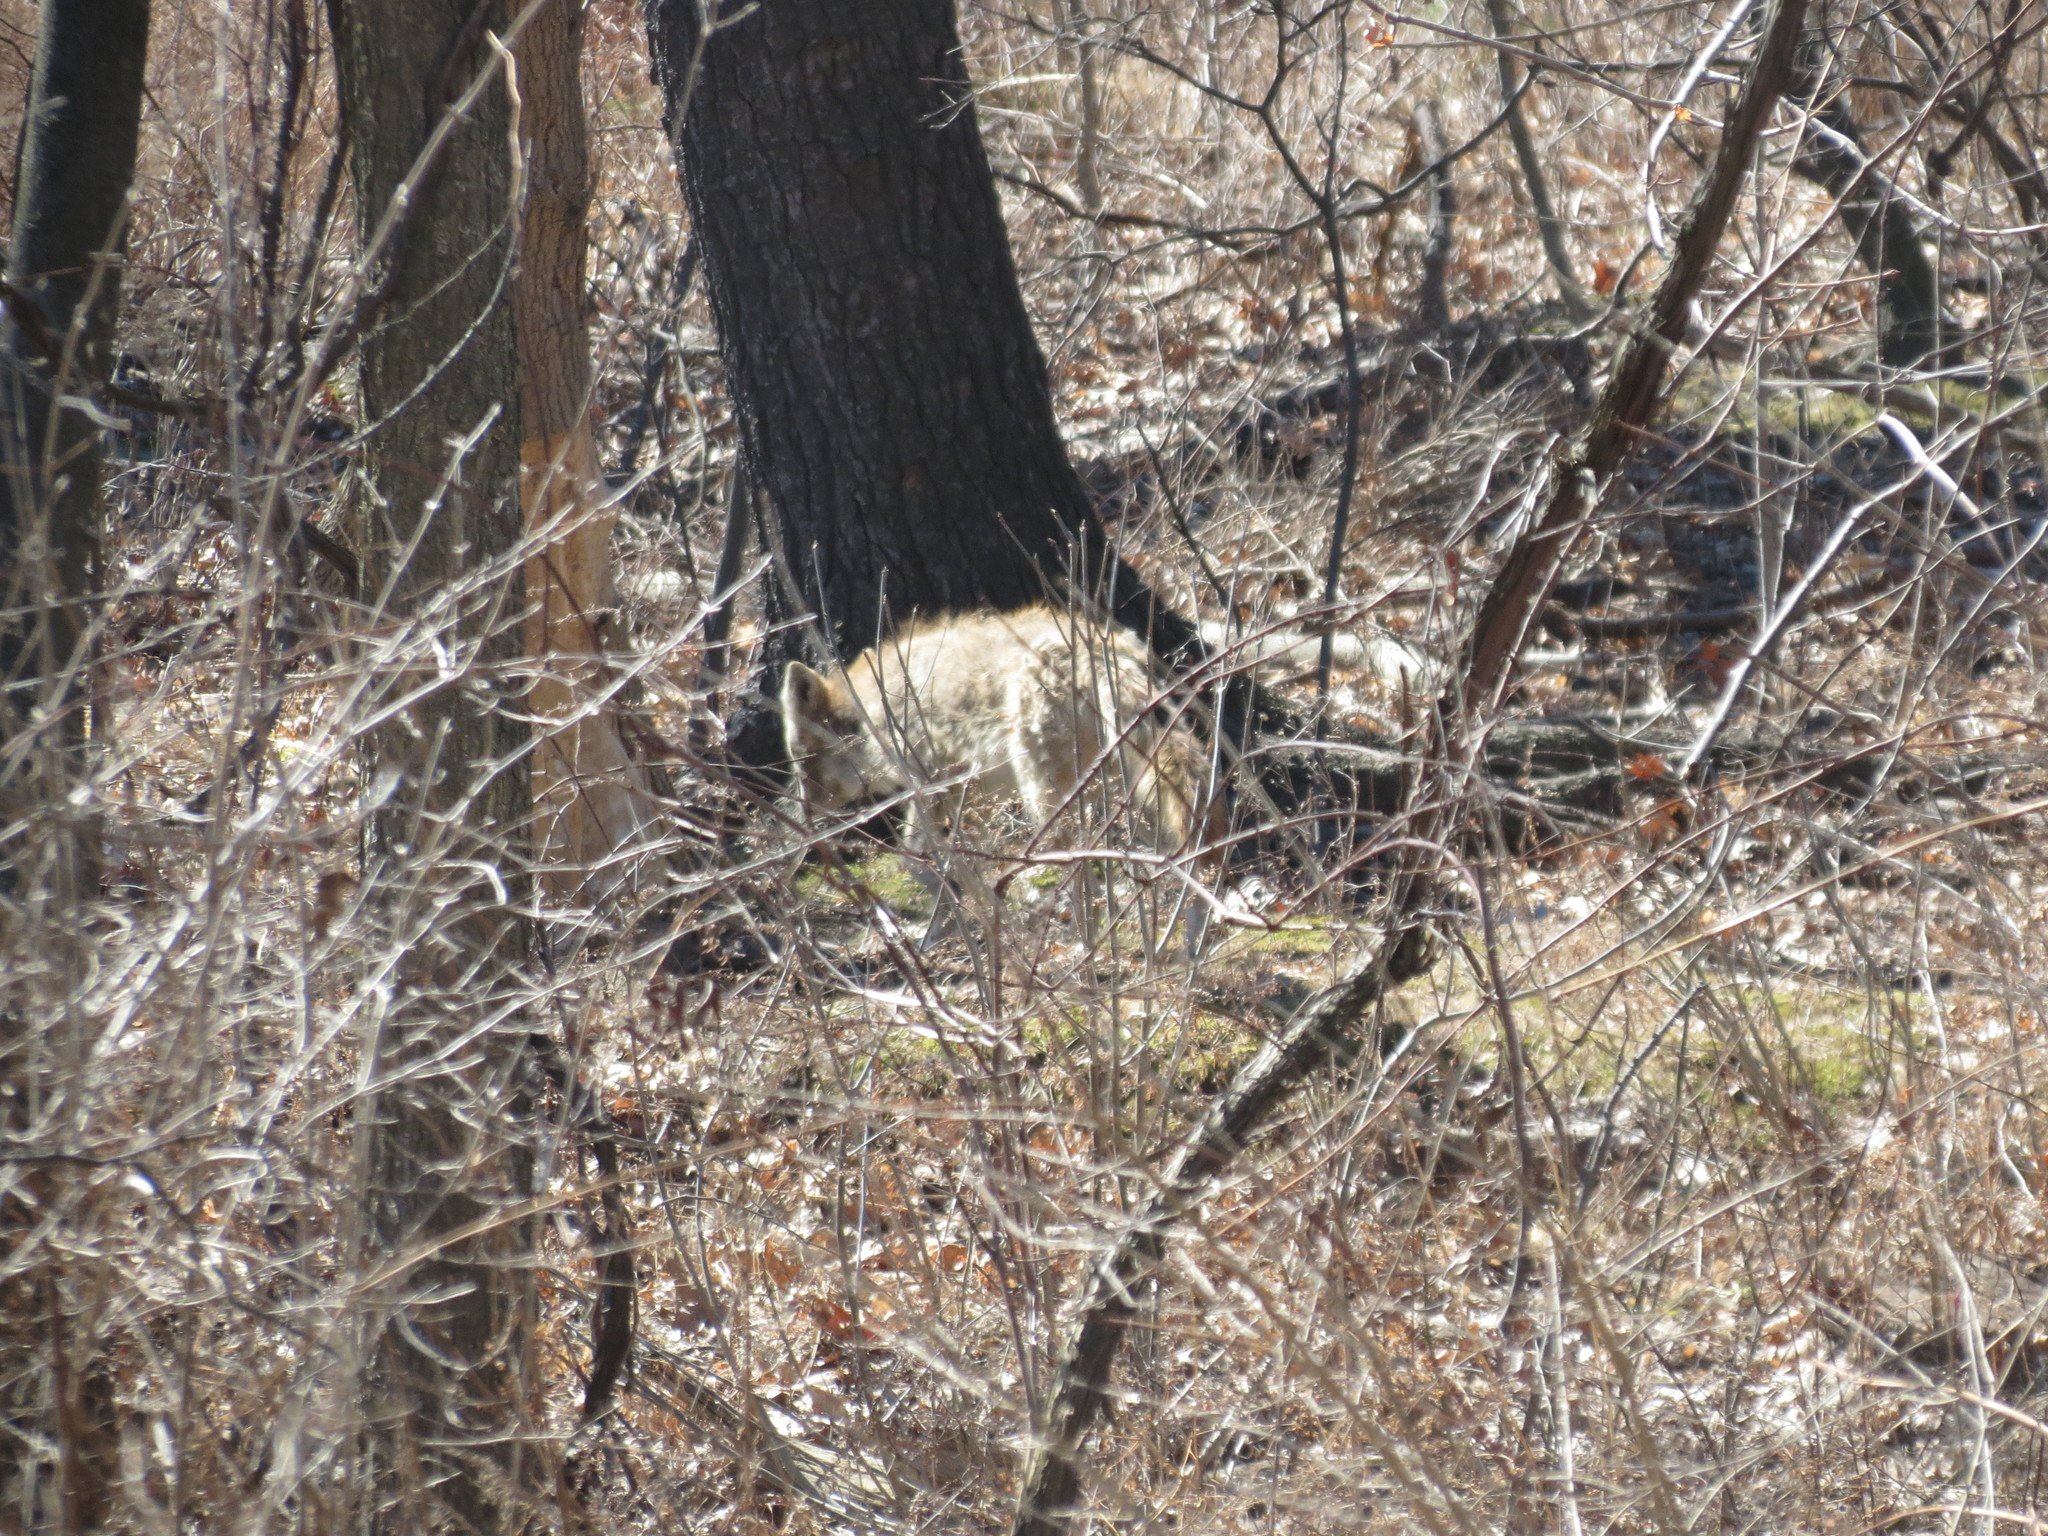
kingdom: Animalia
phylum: Chordata
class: Mammalia
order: Carnivora
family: Canidae
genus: Canis
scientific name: Canis latrans
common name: Coyote
